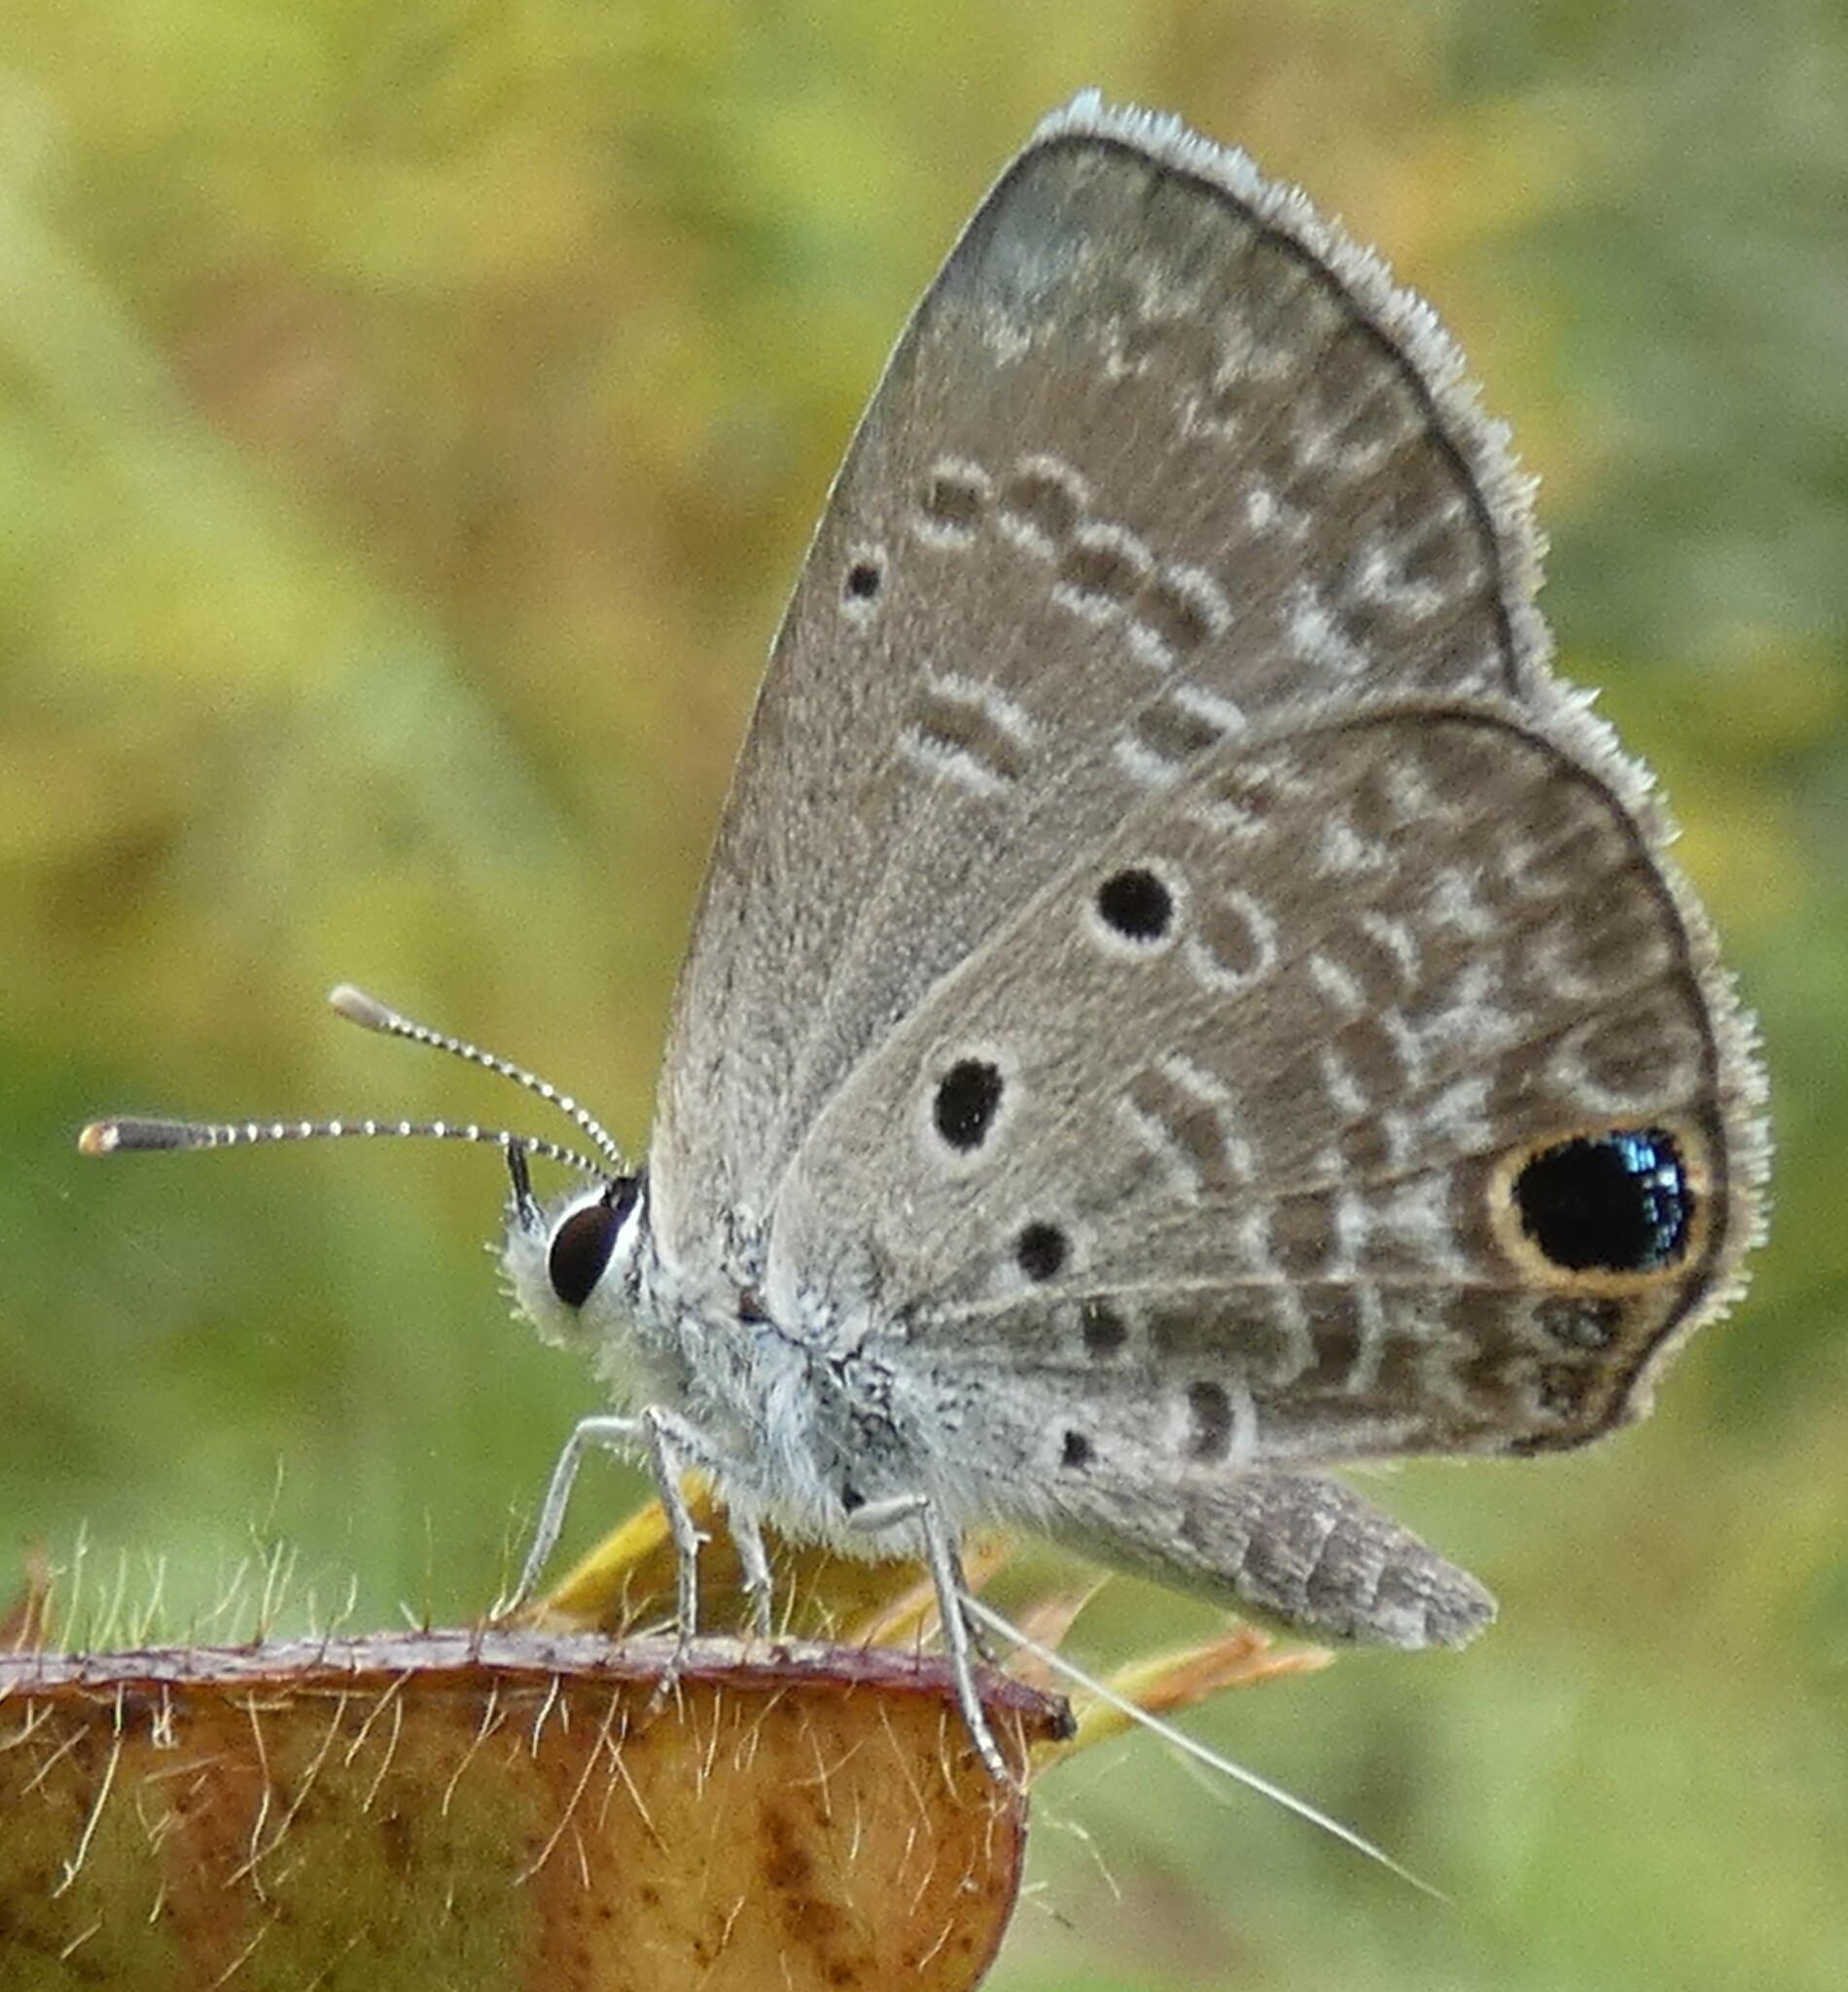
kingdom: Animalia
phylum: Arthropoda
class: Insecta
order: Lepidoptera
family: Lycaenidae
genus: Hemiargus
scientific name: Hemiargus ceraunus
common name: Ceraunus blue
